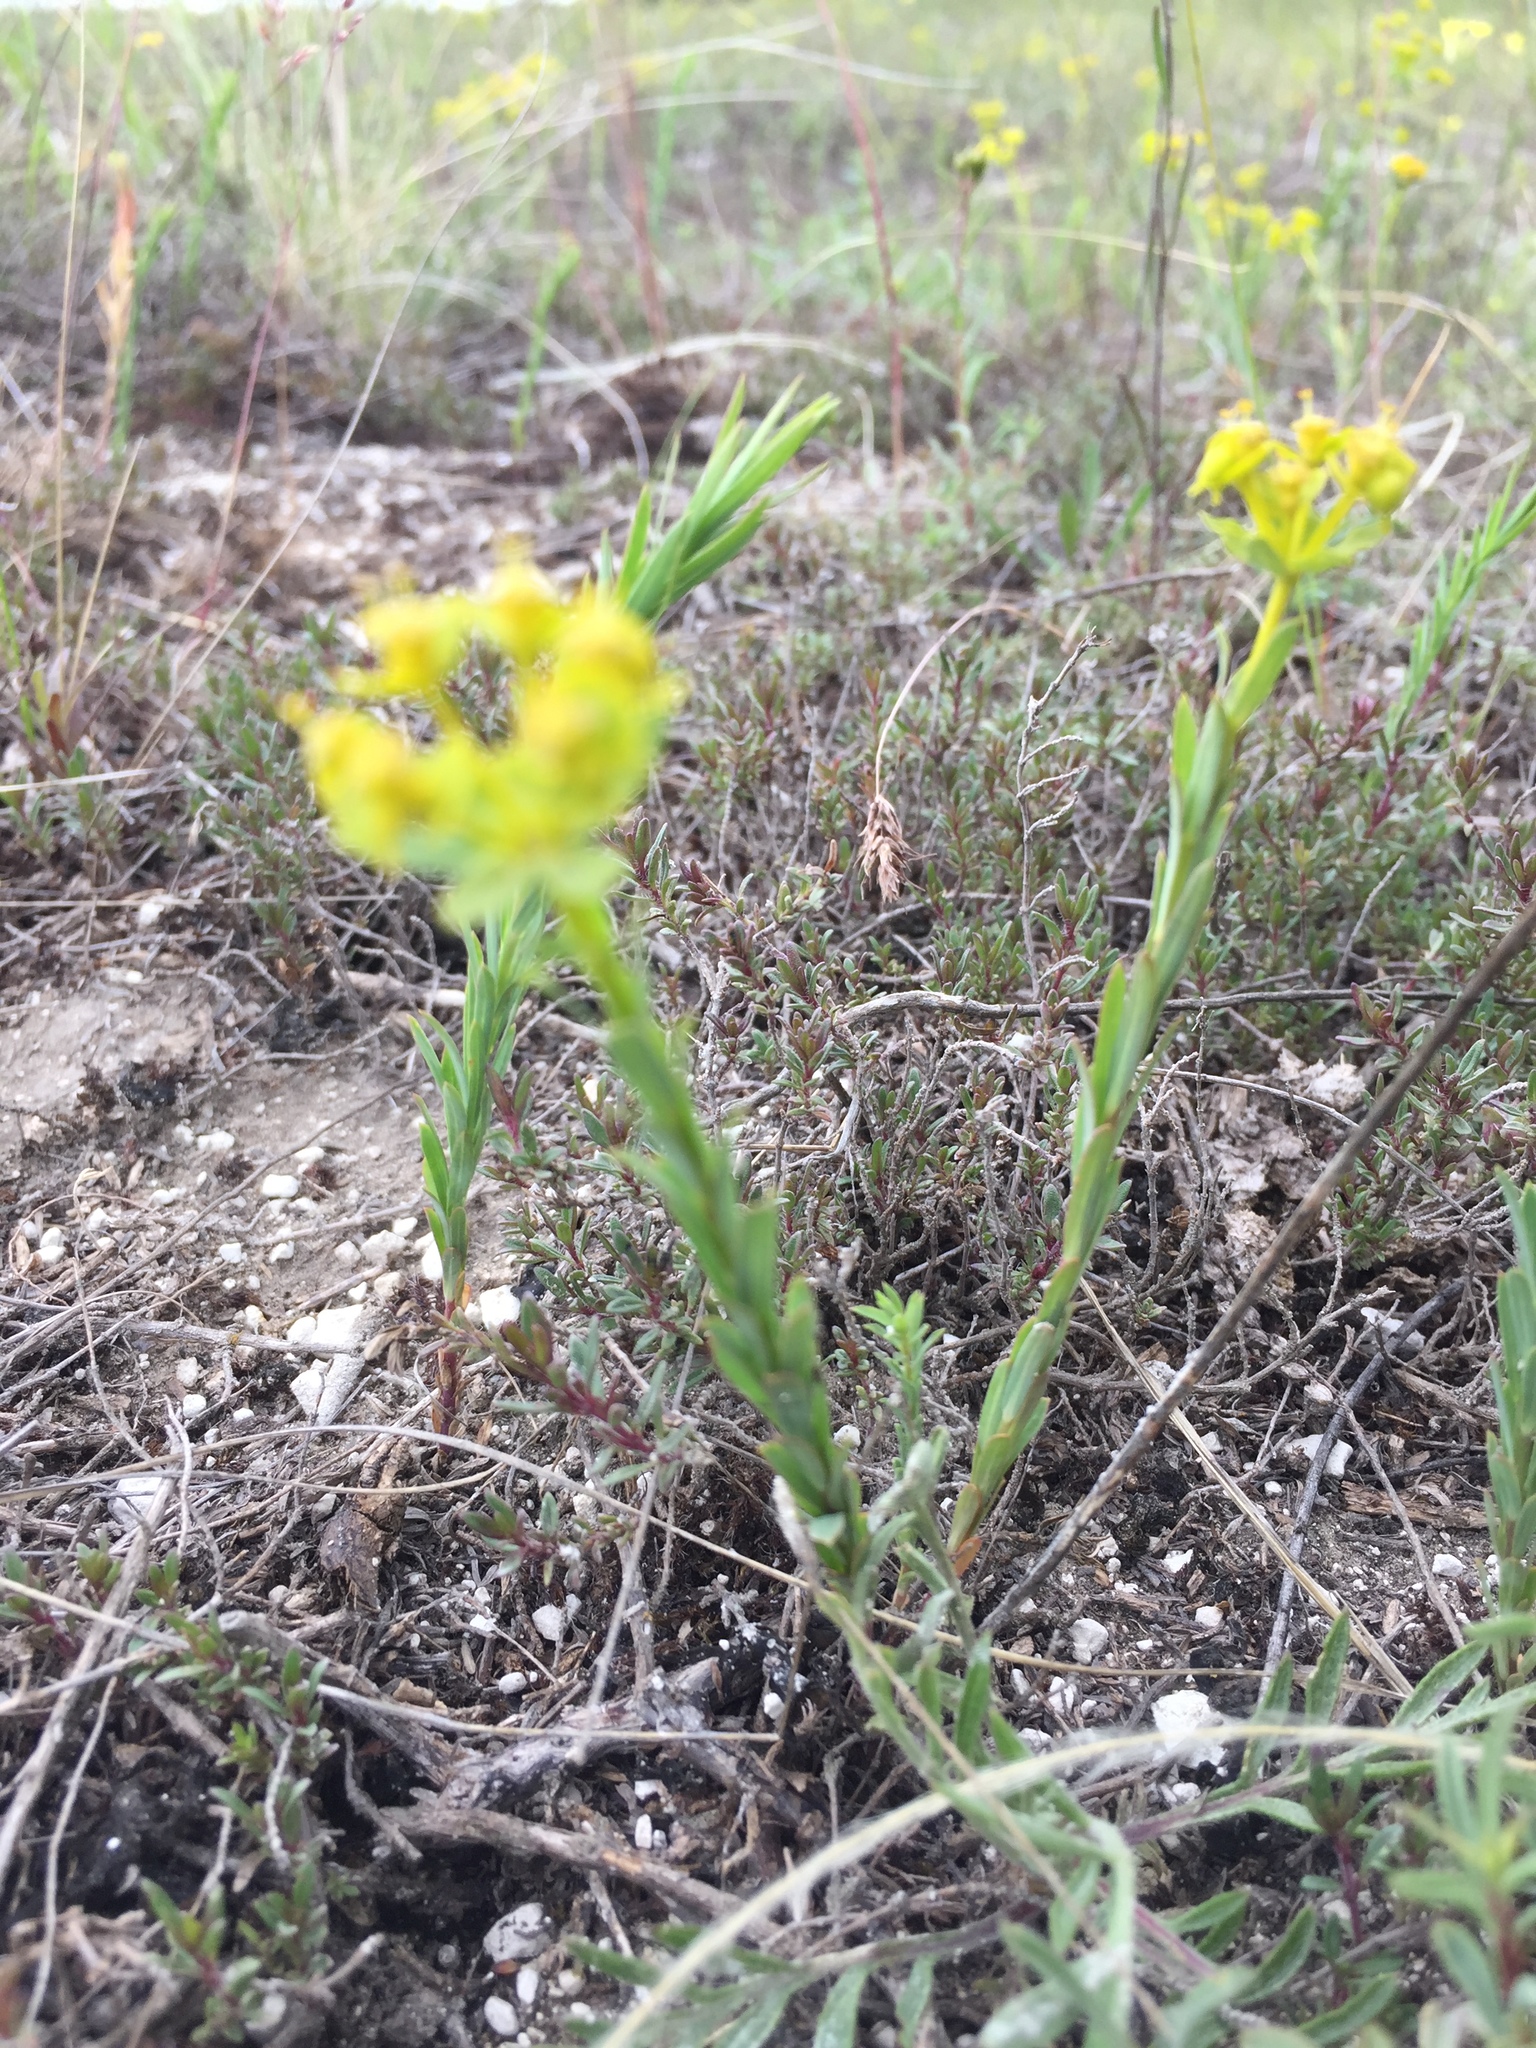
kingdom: Plantae
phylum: Tracheophyta
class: Magnoliopsida
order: Malpighiales
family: Euphorbiaceae
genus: Euphorbia
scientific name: Euphorbia seguieriana
